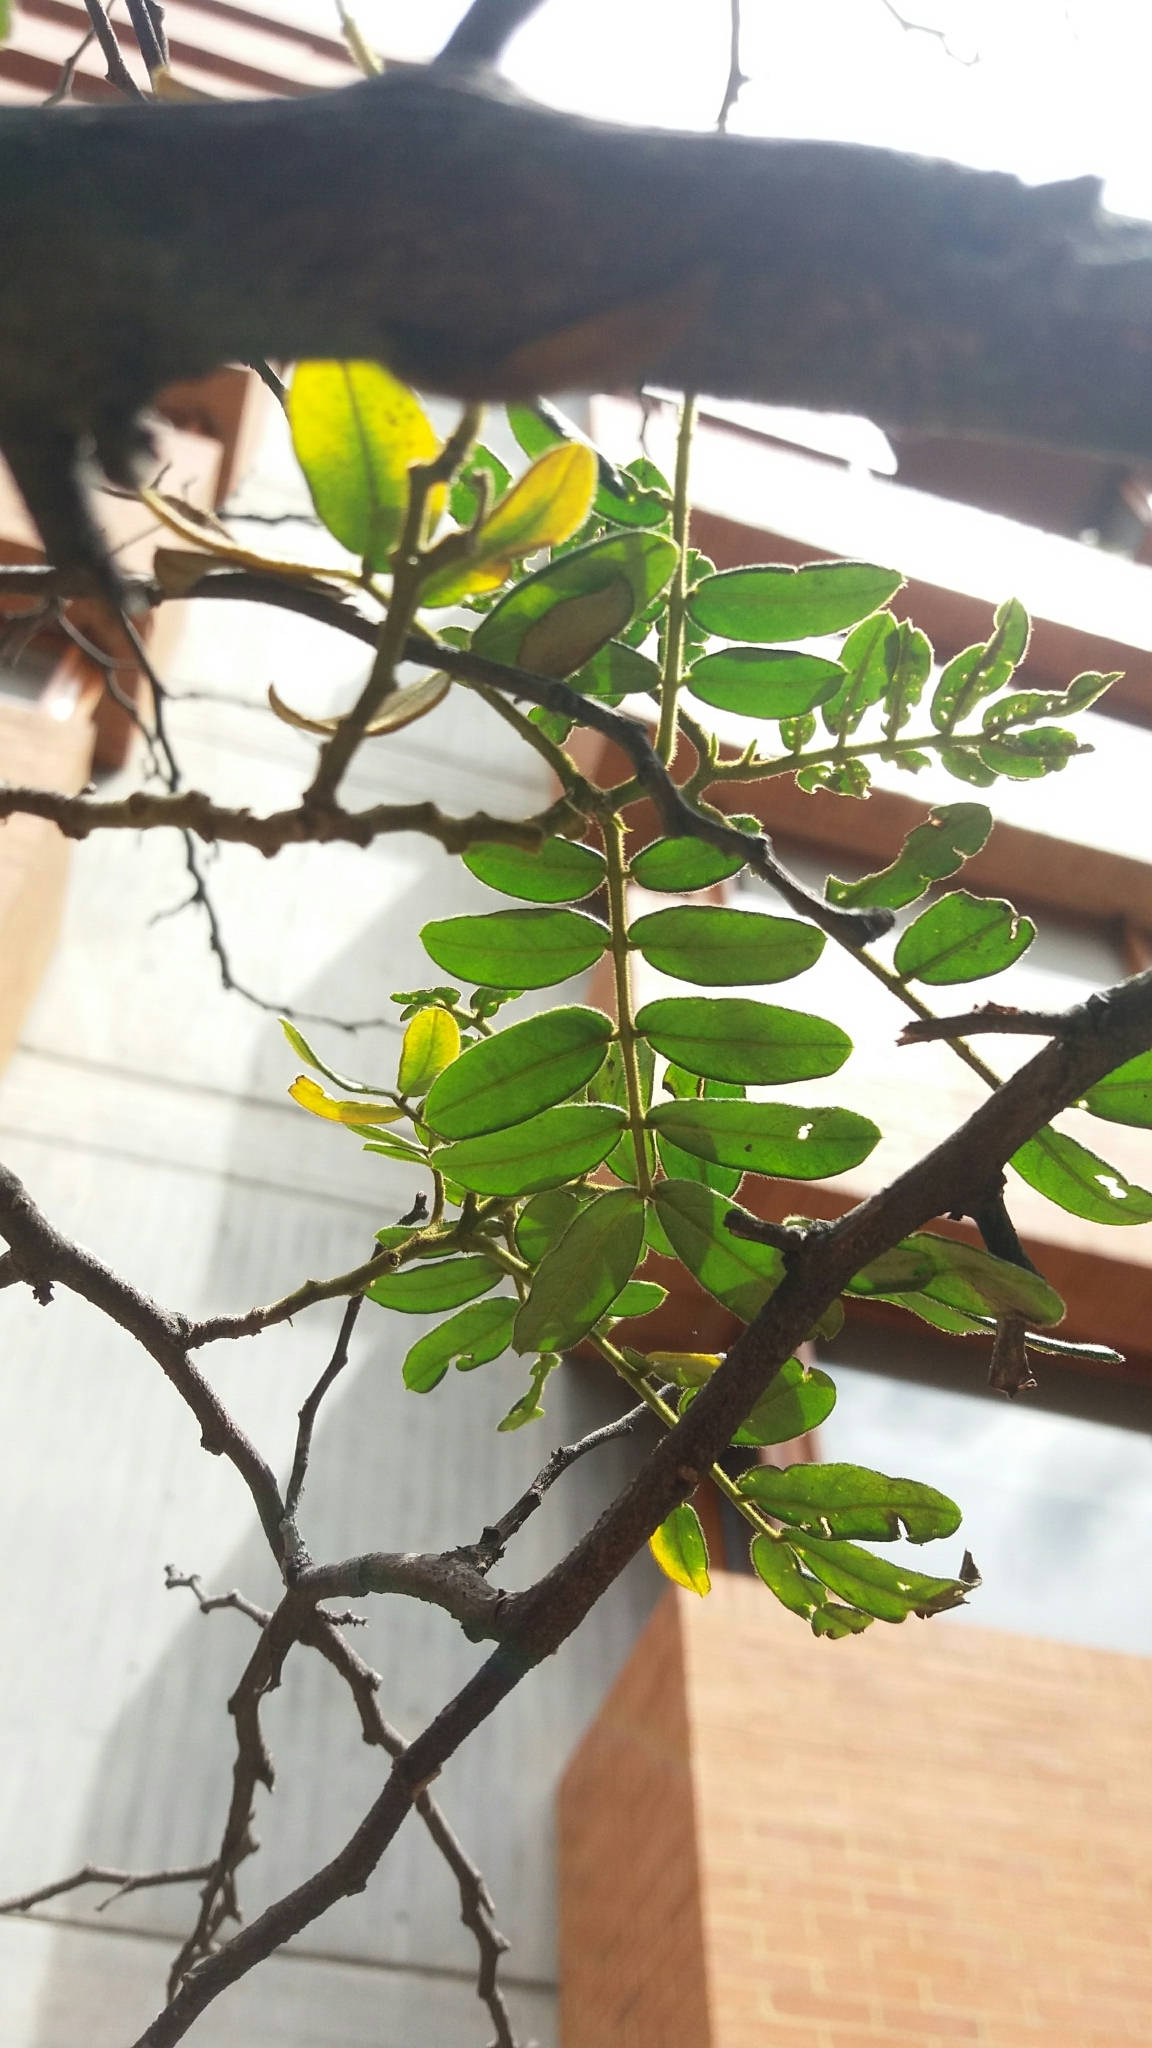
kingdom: Plantae
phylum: Tracheophyta
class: Magnoliopsida
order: Fabales
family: Fabaceae
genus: Senna
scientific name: Senna multiglandulosa
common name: Glandular senna
